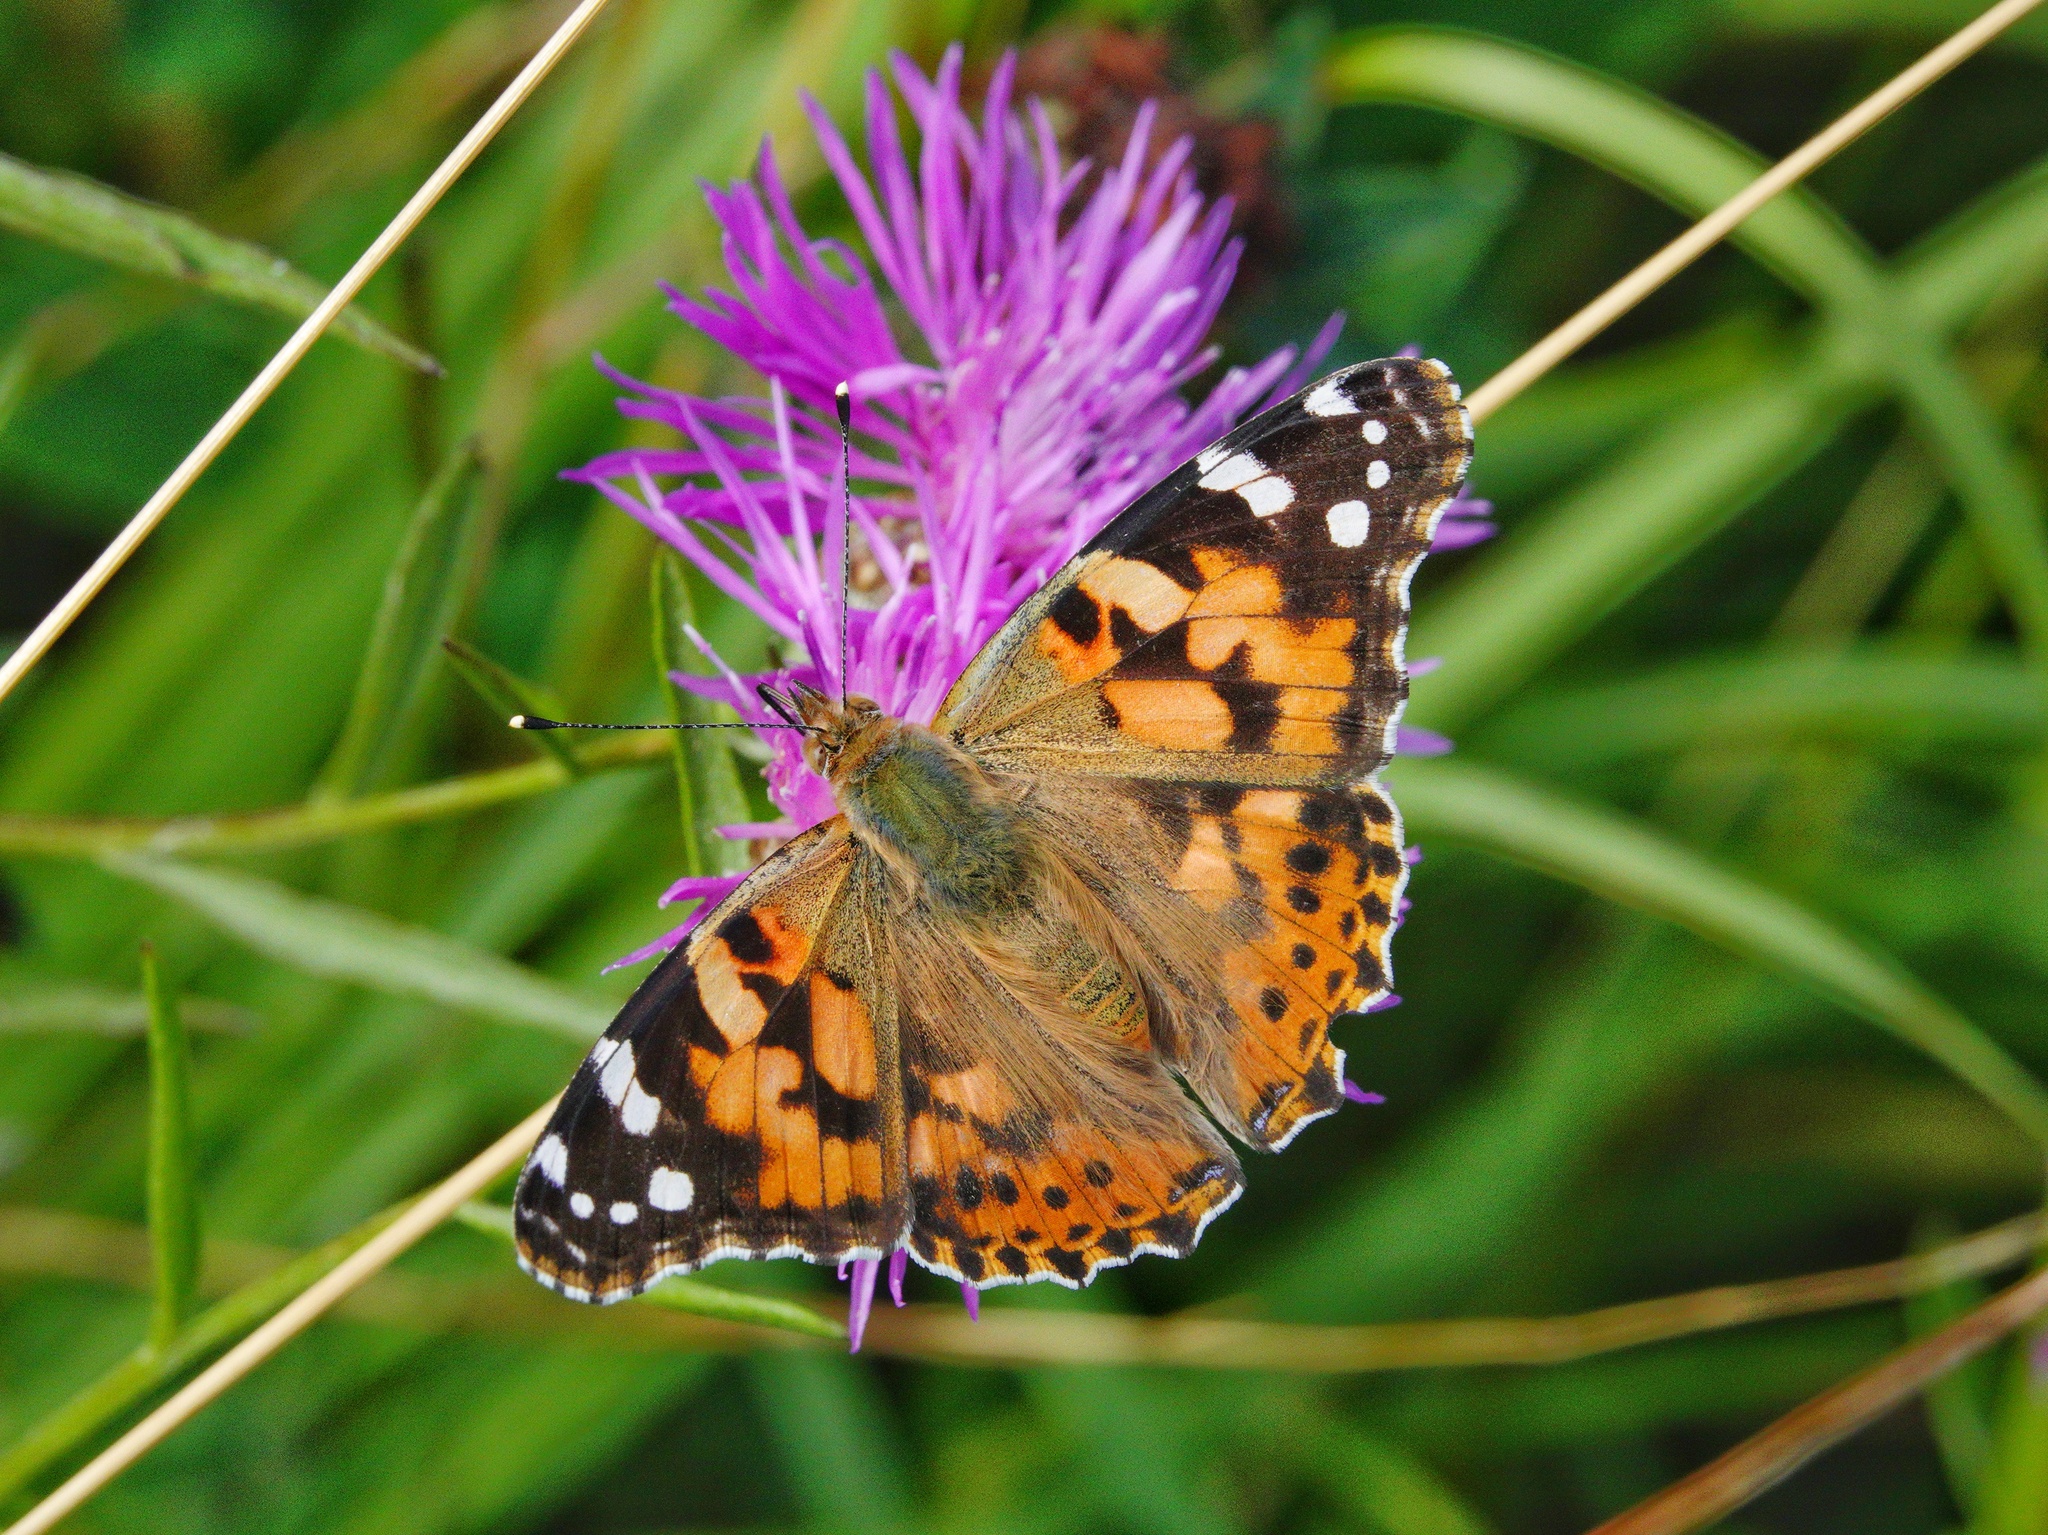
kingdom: Animalia
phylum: Arthropoda
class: Insecta
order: Lepidoptera
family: Nymphalidae
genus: Vanessa
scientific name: Vanessa cardui
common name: Painted lady
